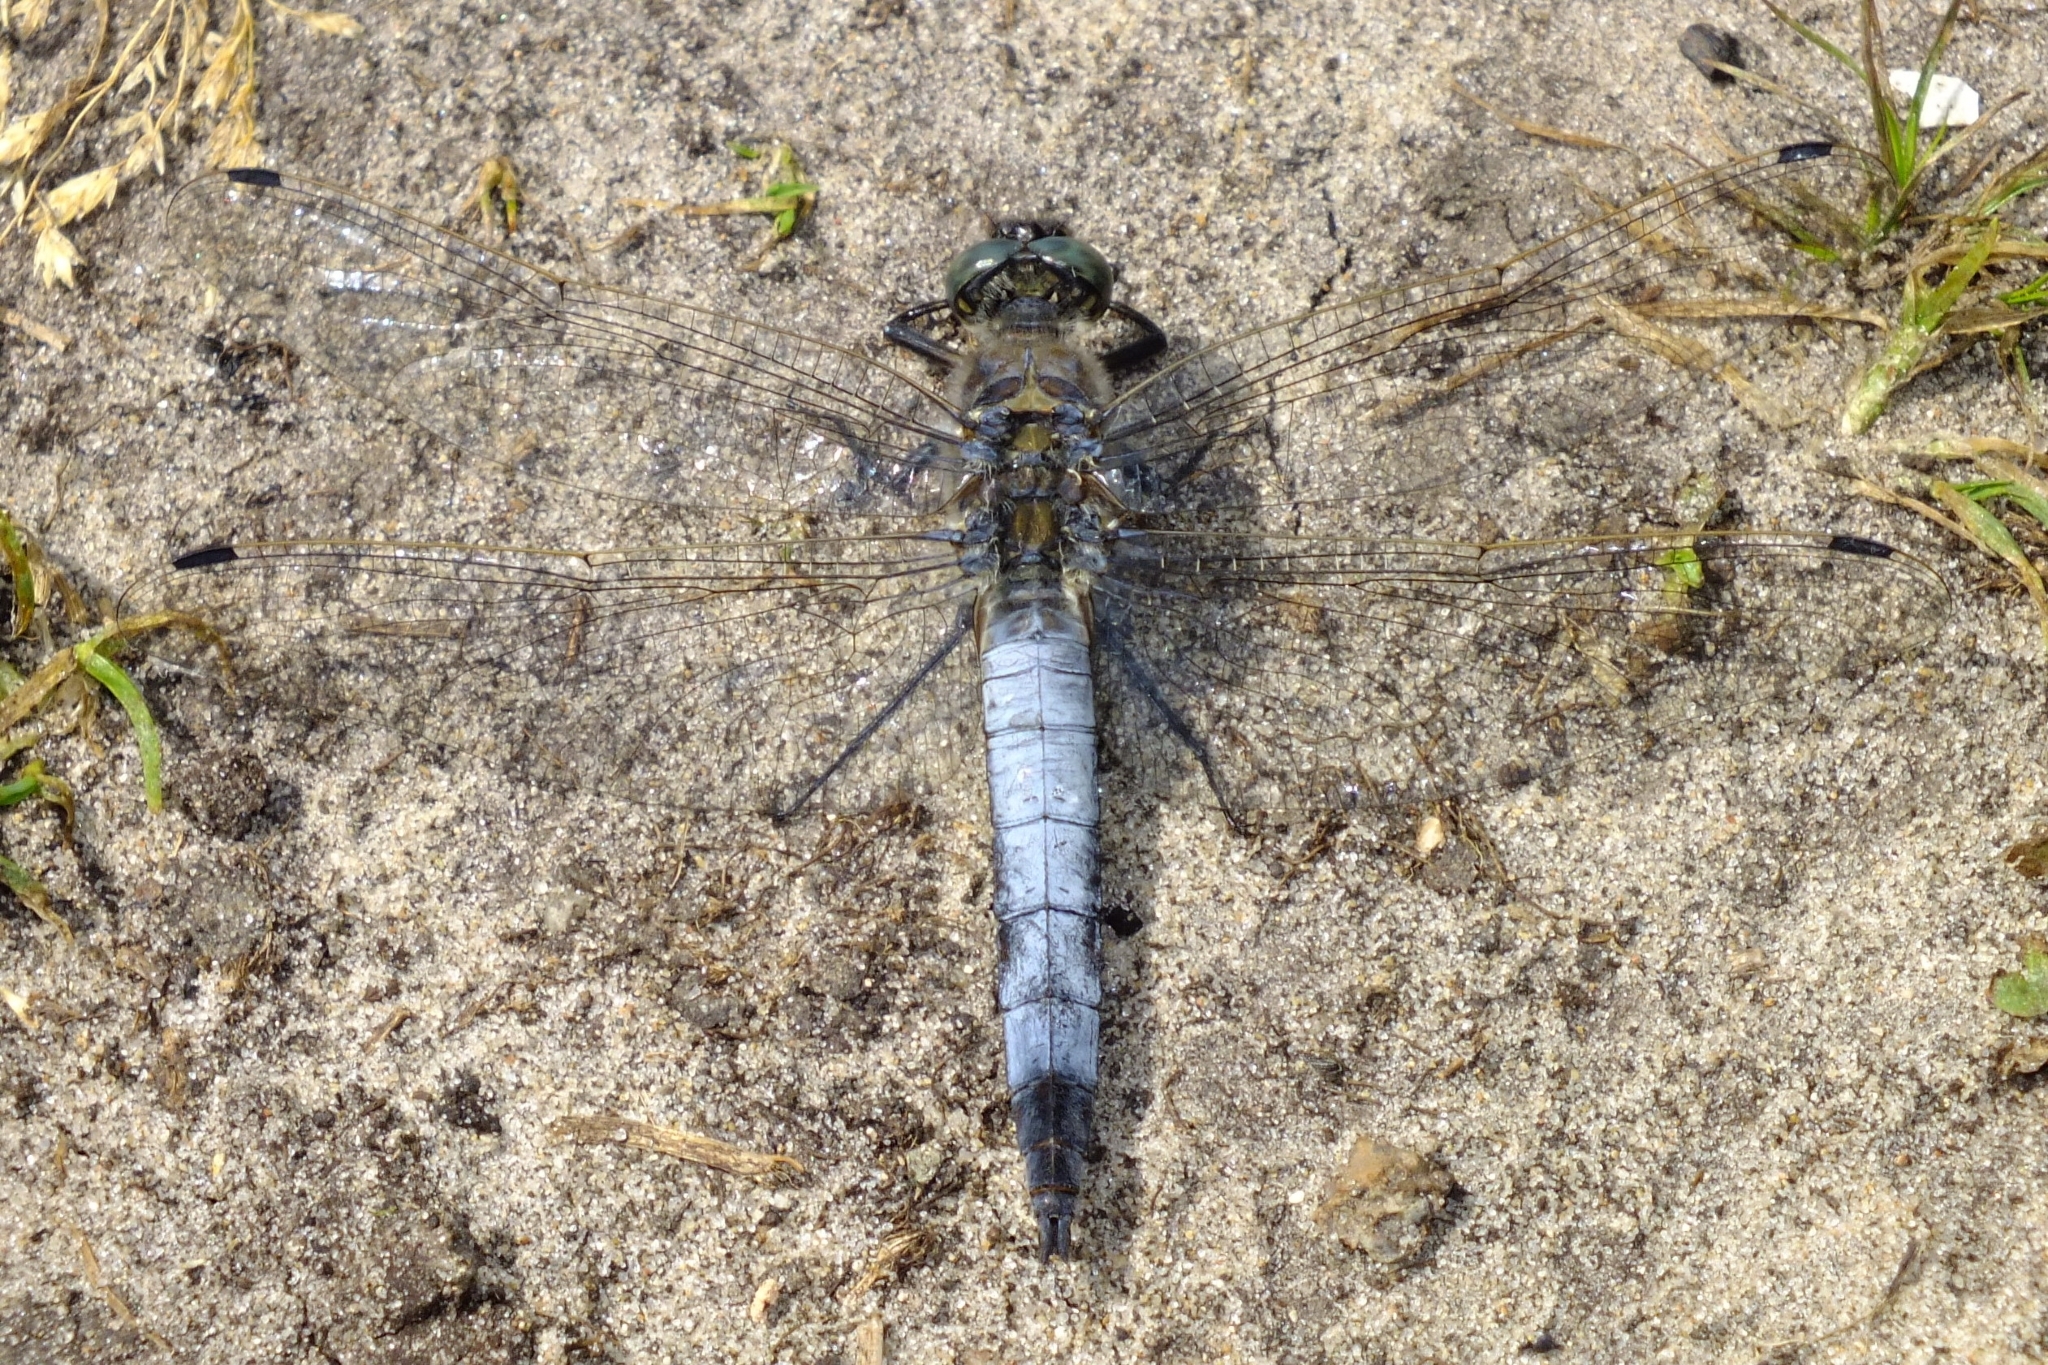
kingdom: Animalia
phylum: Arthropoda
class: Insecta
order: Odonata
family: Libellulidae
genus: Orthetrum
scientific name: Orthetrum cancellatum
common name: Black-tailed skimmer
